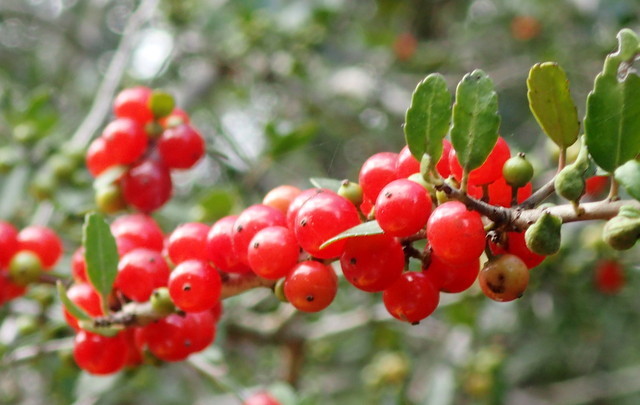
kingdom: Plantae
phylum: Tracheophyta
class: Magnoliopsida
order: Aquifoliales
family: Aquifoliaceae
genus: Ilex
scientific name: Ilex vomitoria
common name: Yaupon holly
